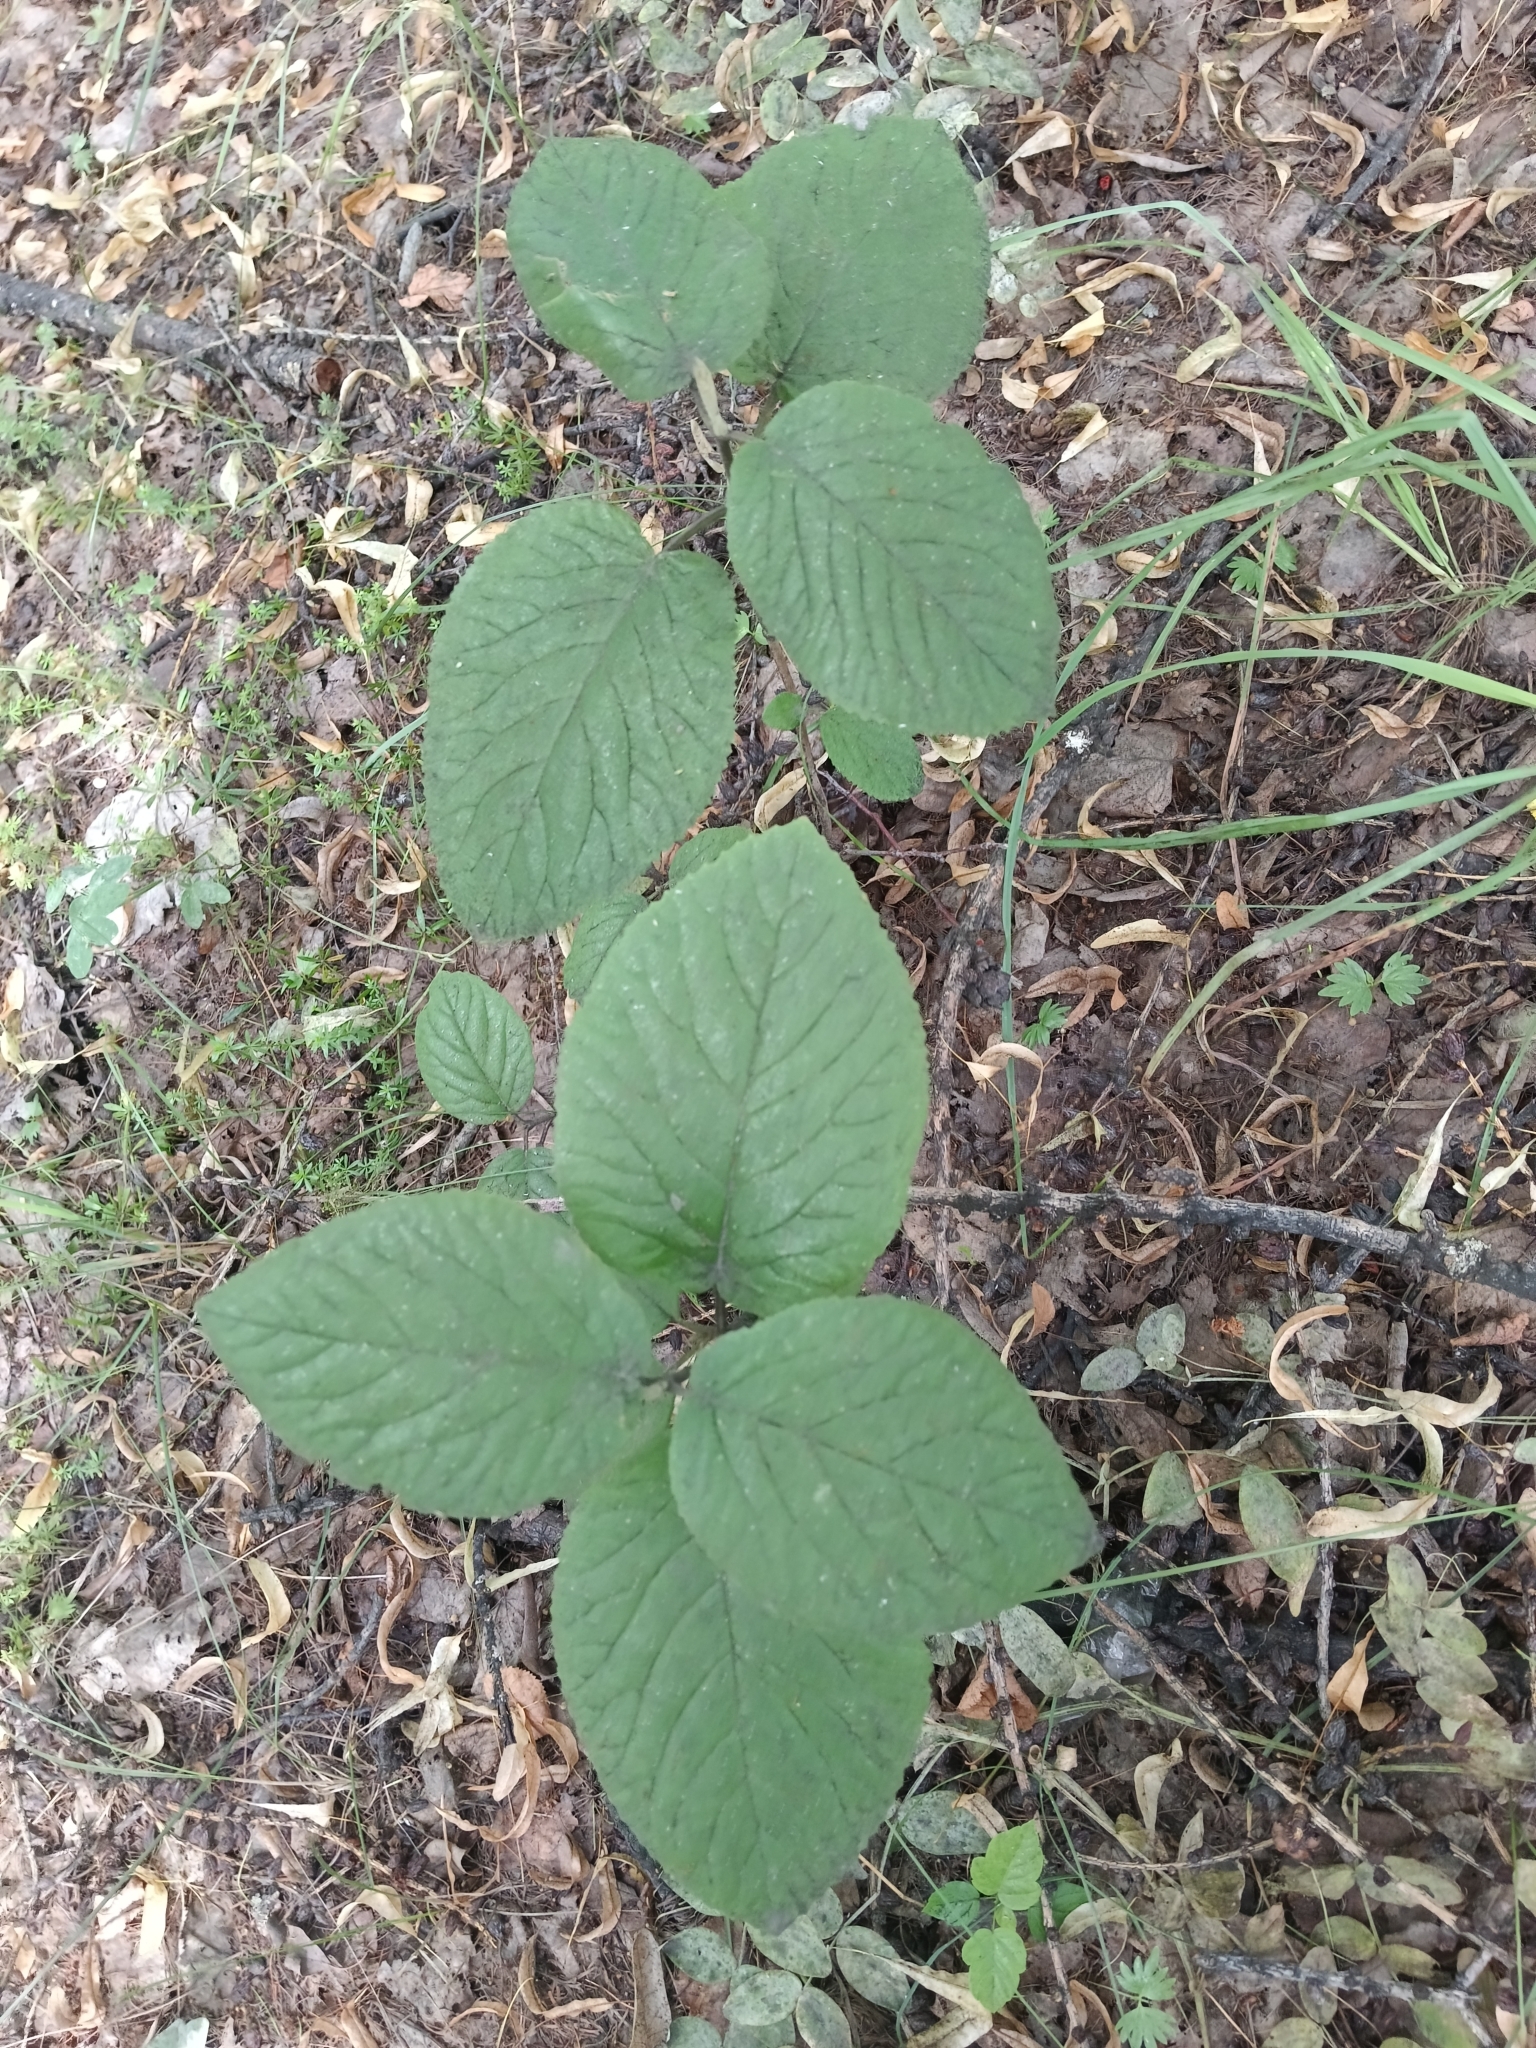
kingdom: Plantae
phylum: Tracheophyta
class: Magnoliopsida
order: Dipsacales
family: Viburnaceae
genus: Viburnum
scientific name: Viburnum lantana
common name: Wayfaring tree
